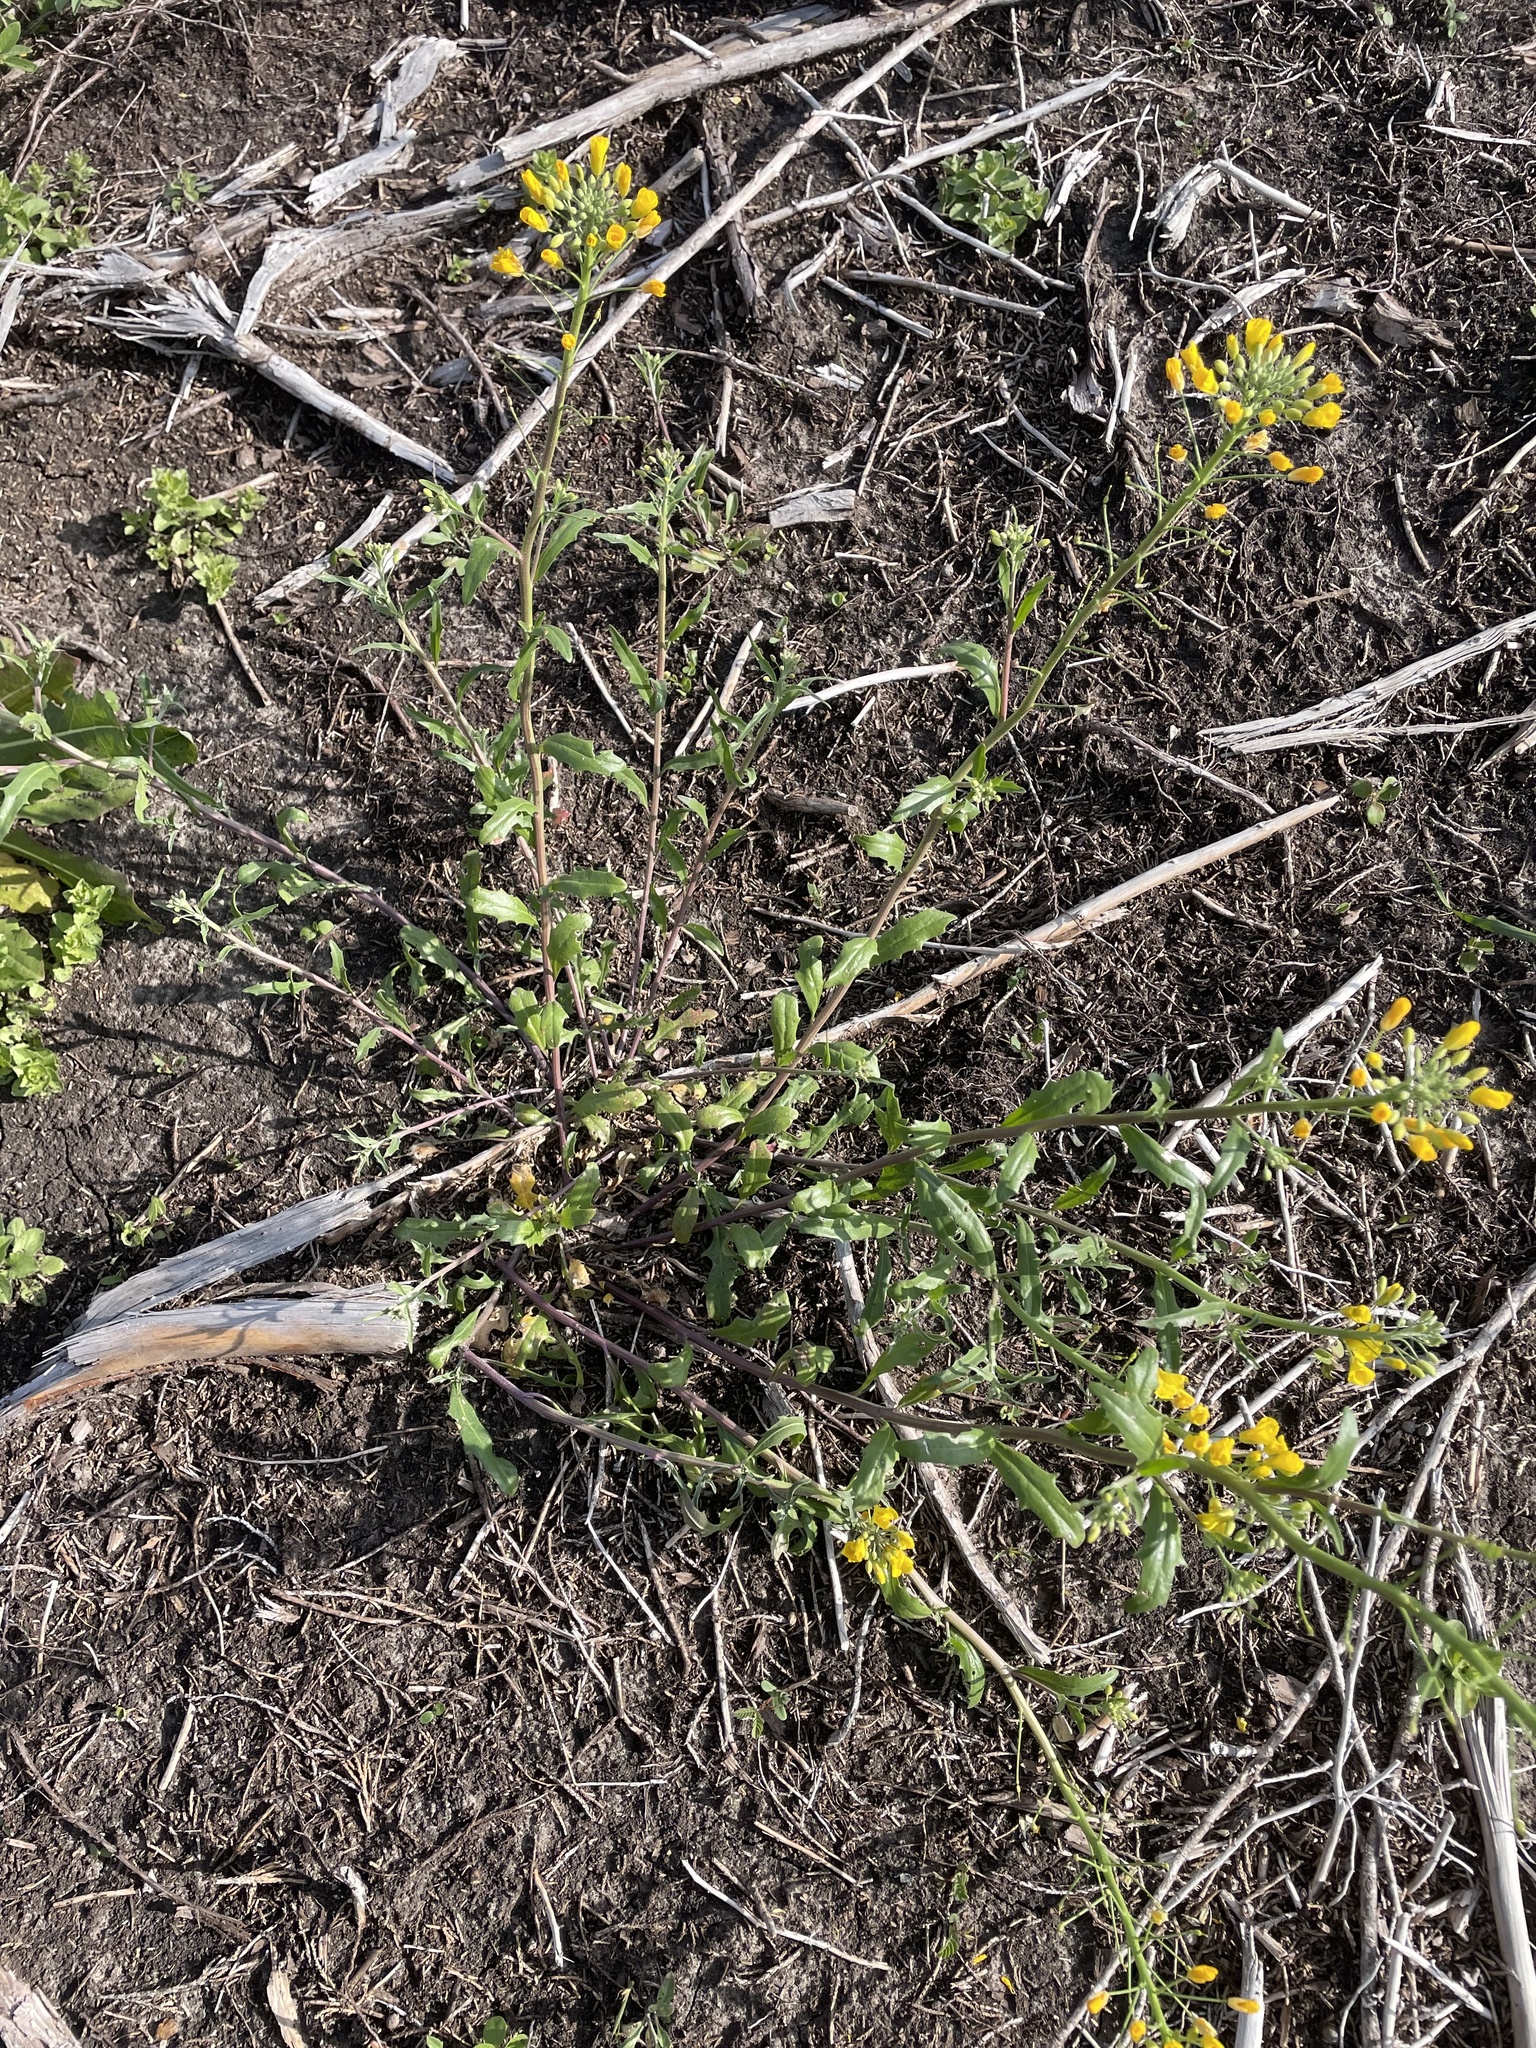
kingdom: Plantae
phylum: Tracheophyta
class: Magnoliopsida
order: Brassicales
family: Brassicaceae
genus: Physaria
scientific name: Physaria gracilis
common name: Spreading bladderpod
